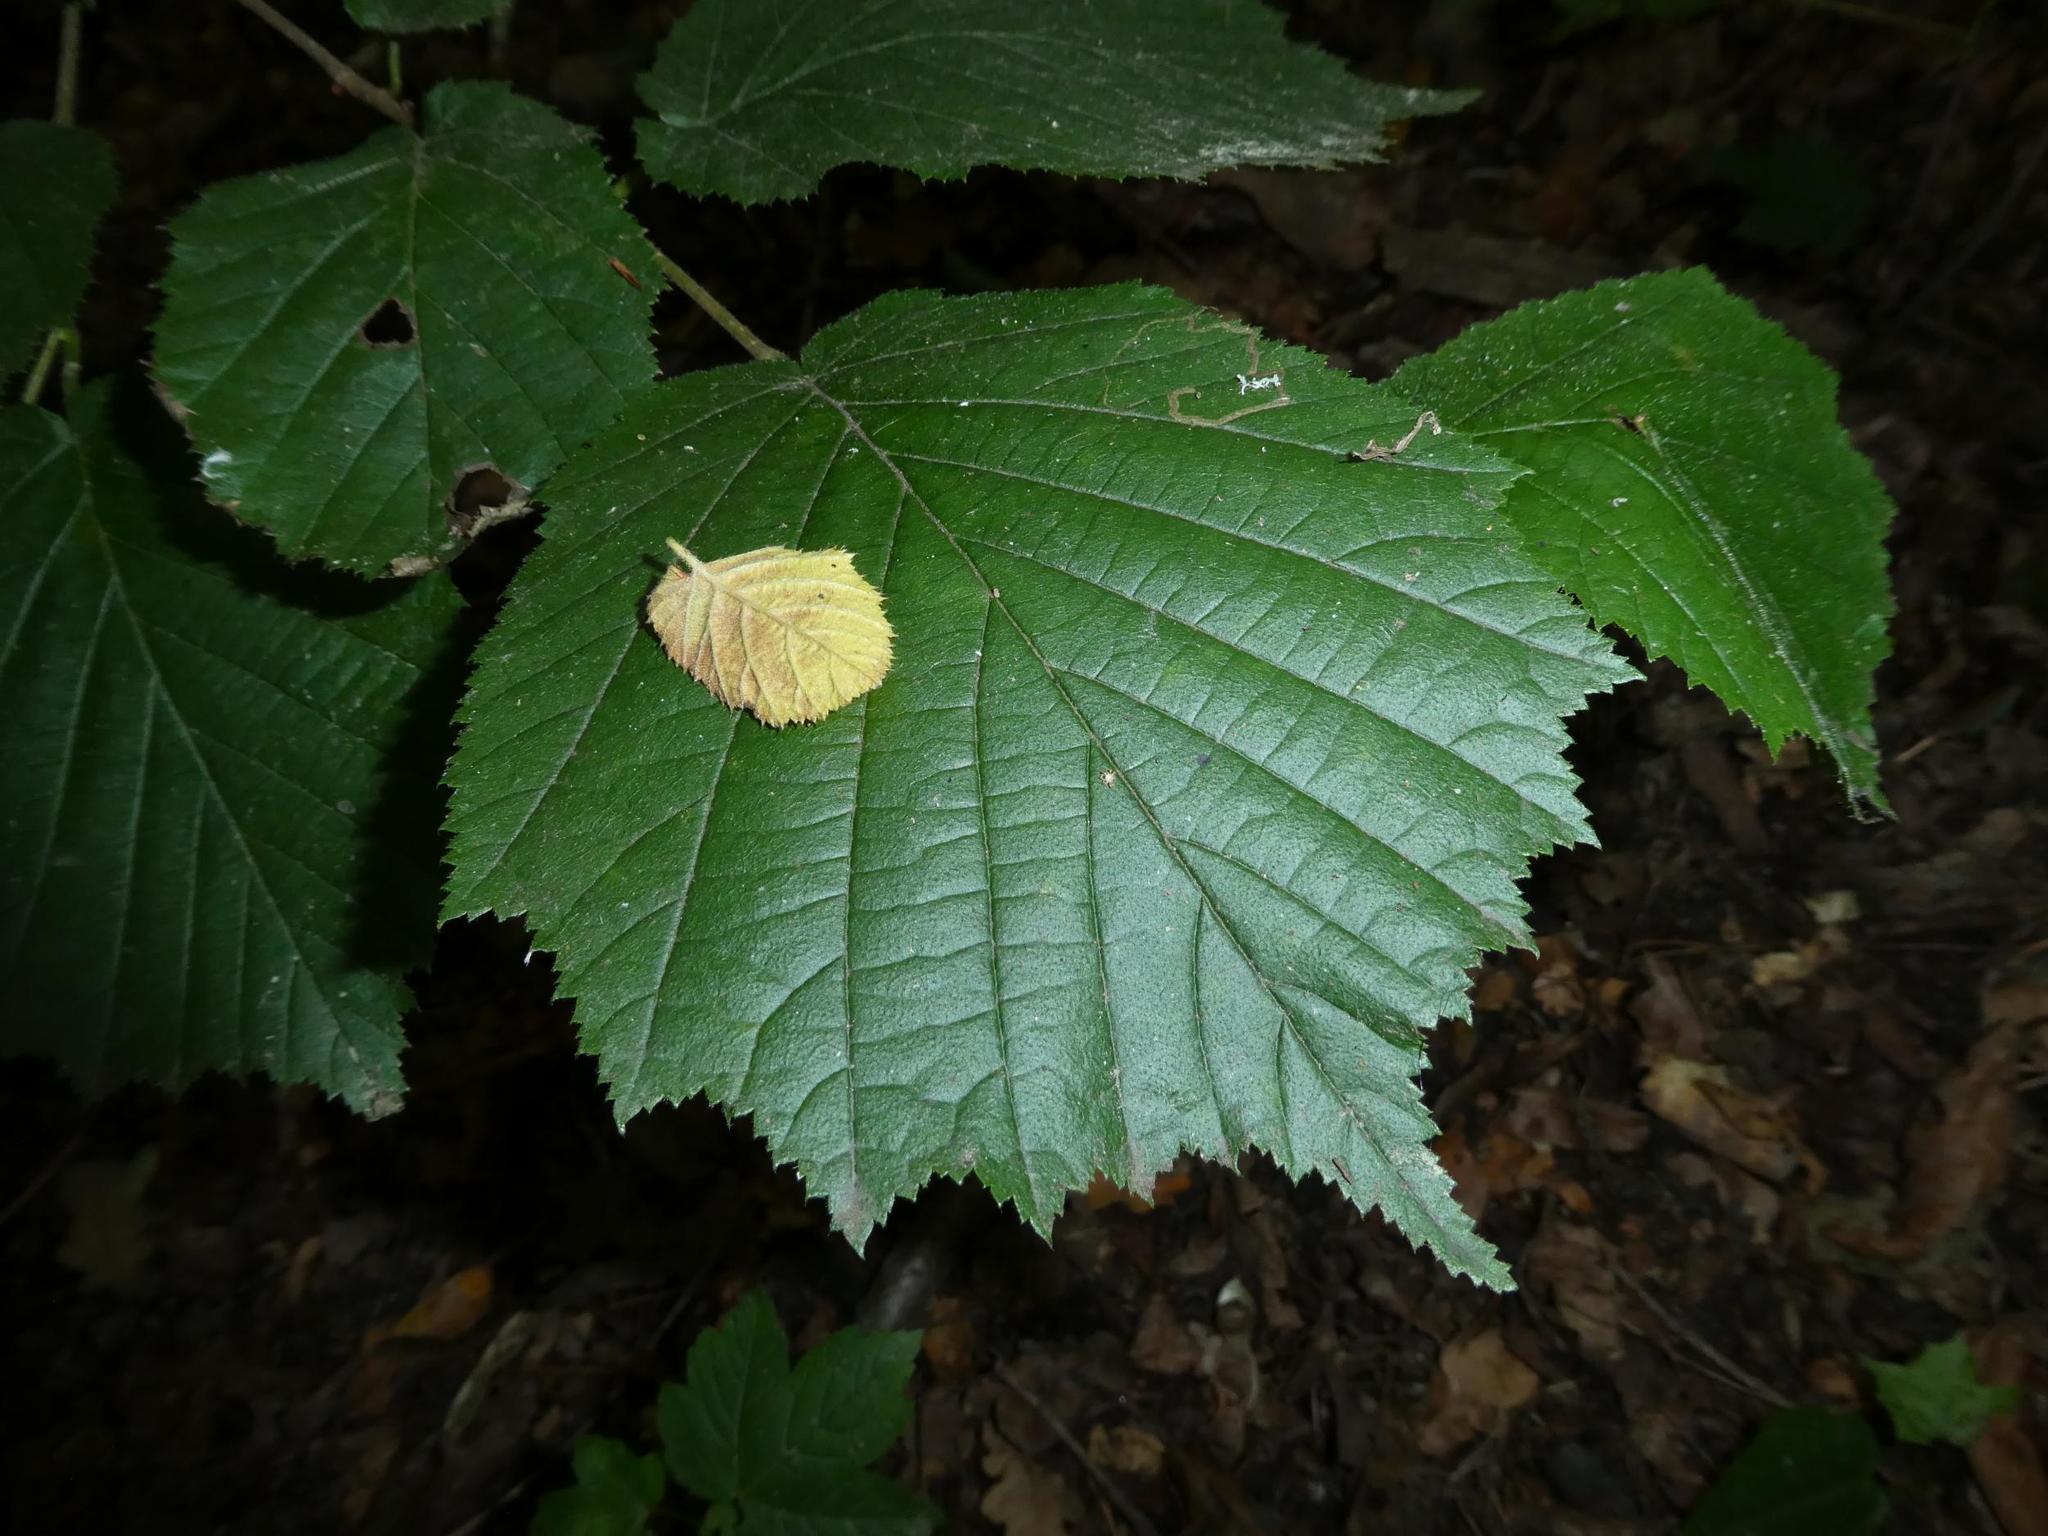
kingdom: Plantae
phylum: Tracheophyta
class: Magnoliopsida
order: Fagales
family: Betulaceae
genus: Corylus
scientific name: Corylus avellana
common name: European hazel
